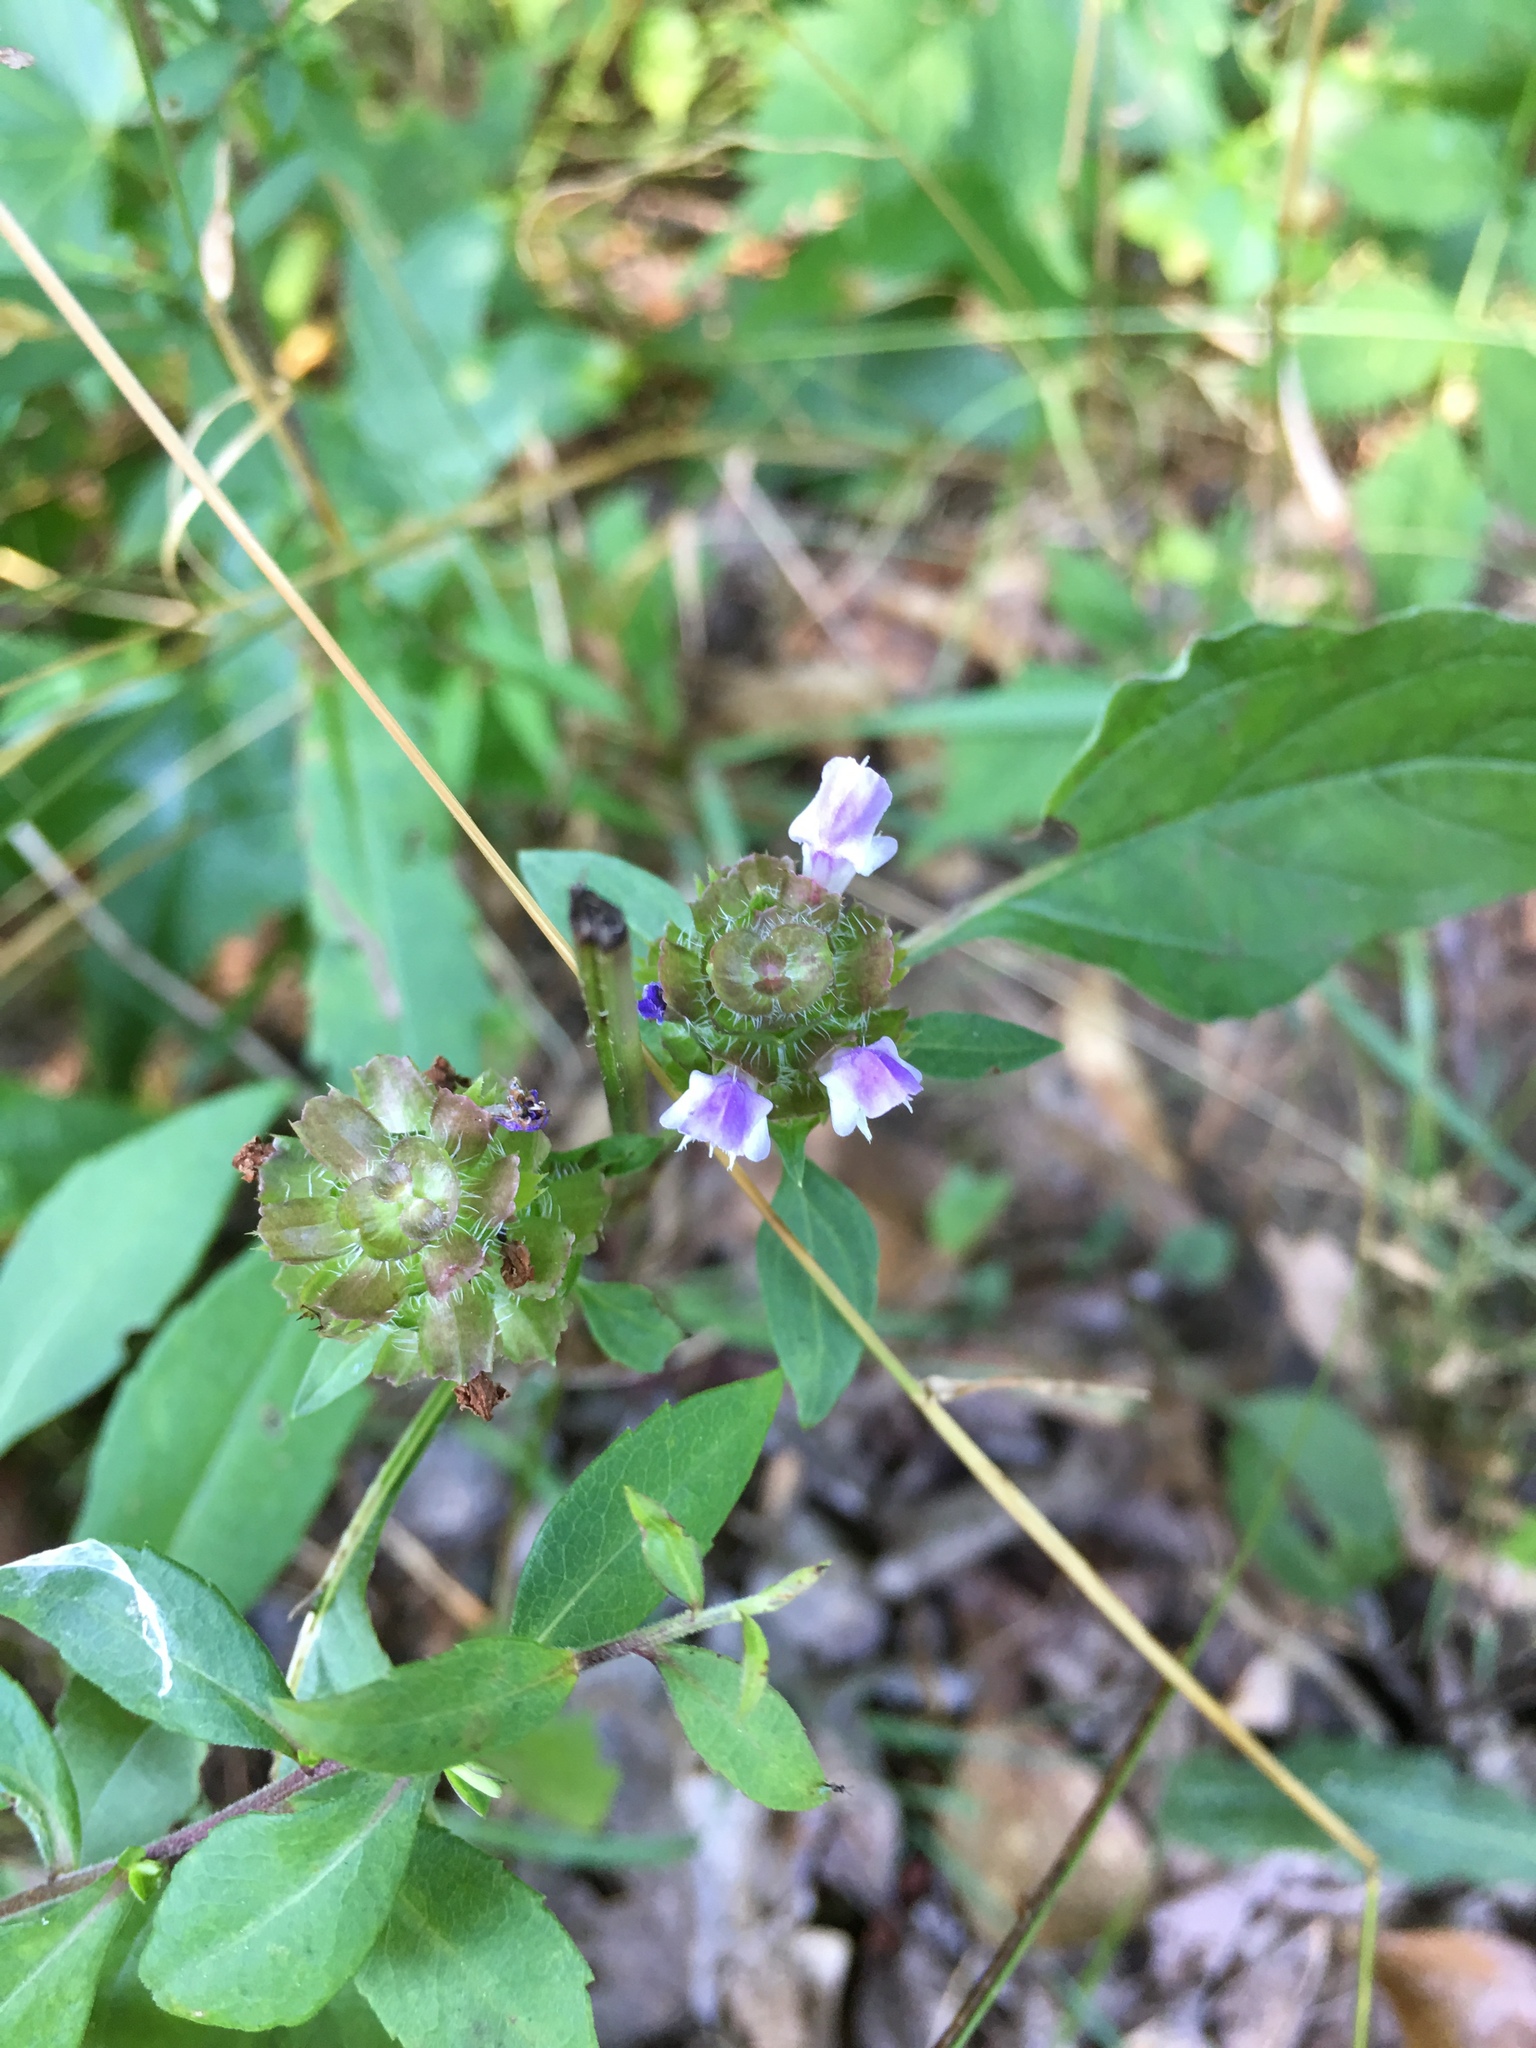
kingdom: Plantae
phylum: Tracheophyta
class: Magnoliopsida
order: Lamiales
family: Lamiaceae
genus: Prunella
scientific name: Prunella vulgaris
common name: Heal-all
